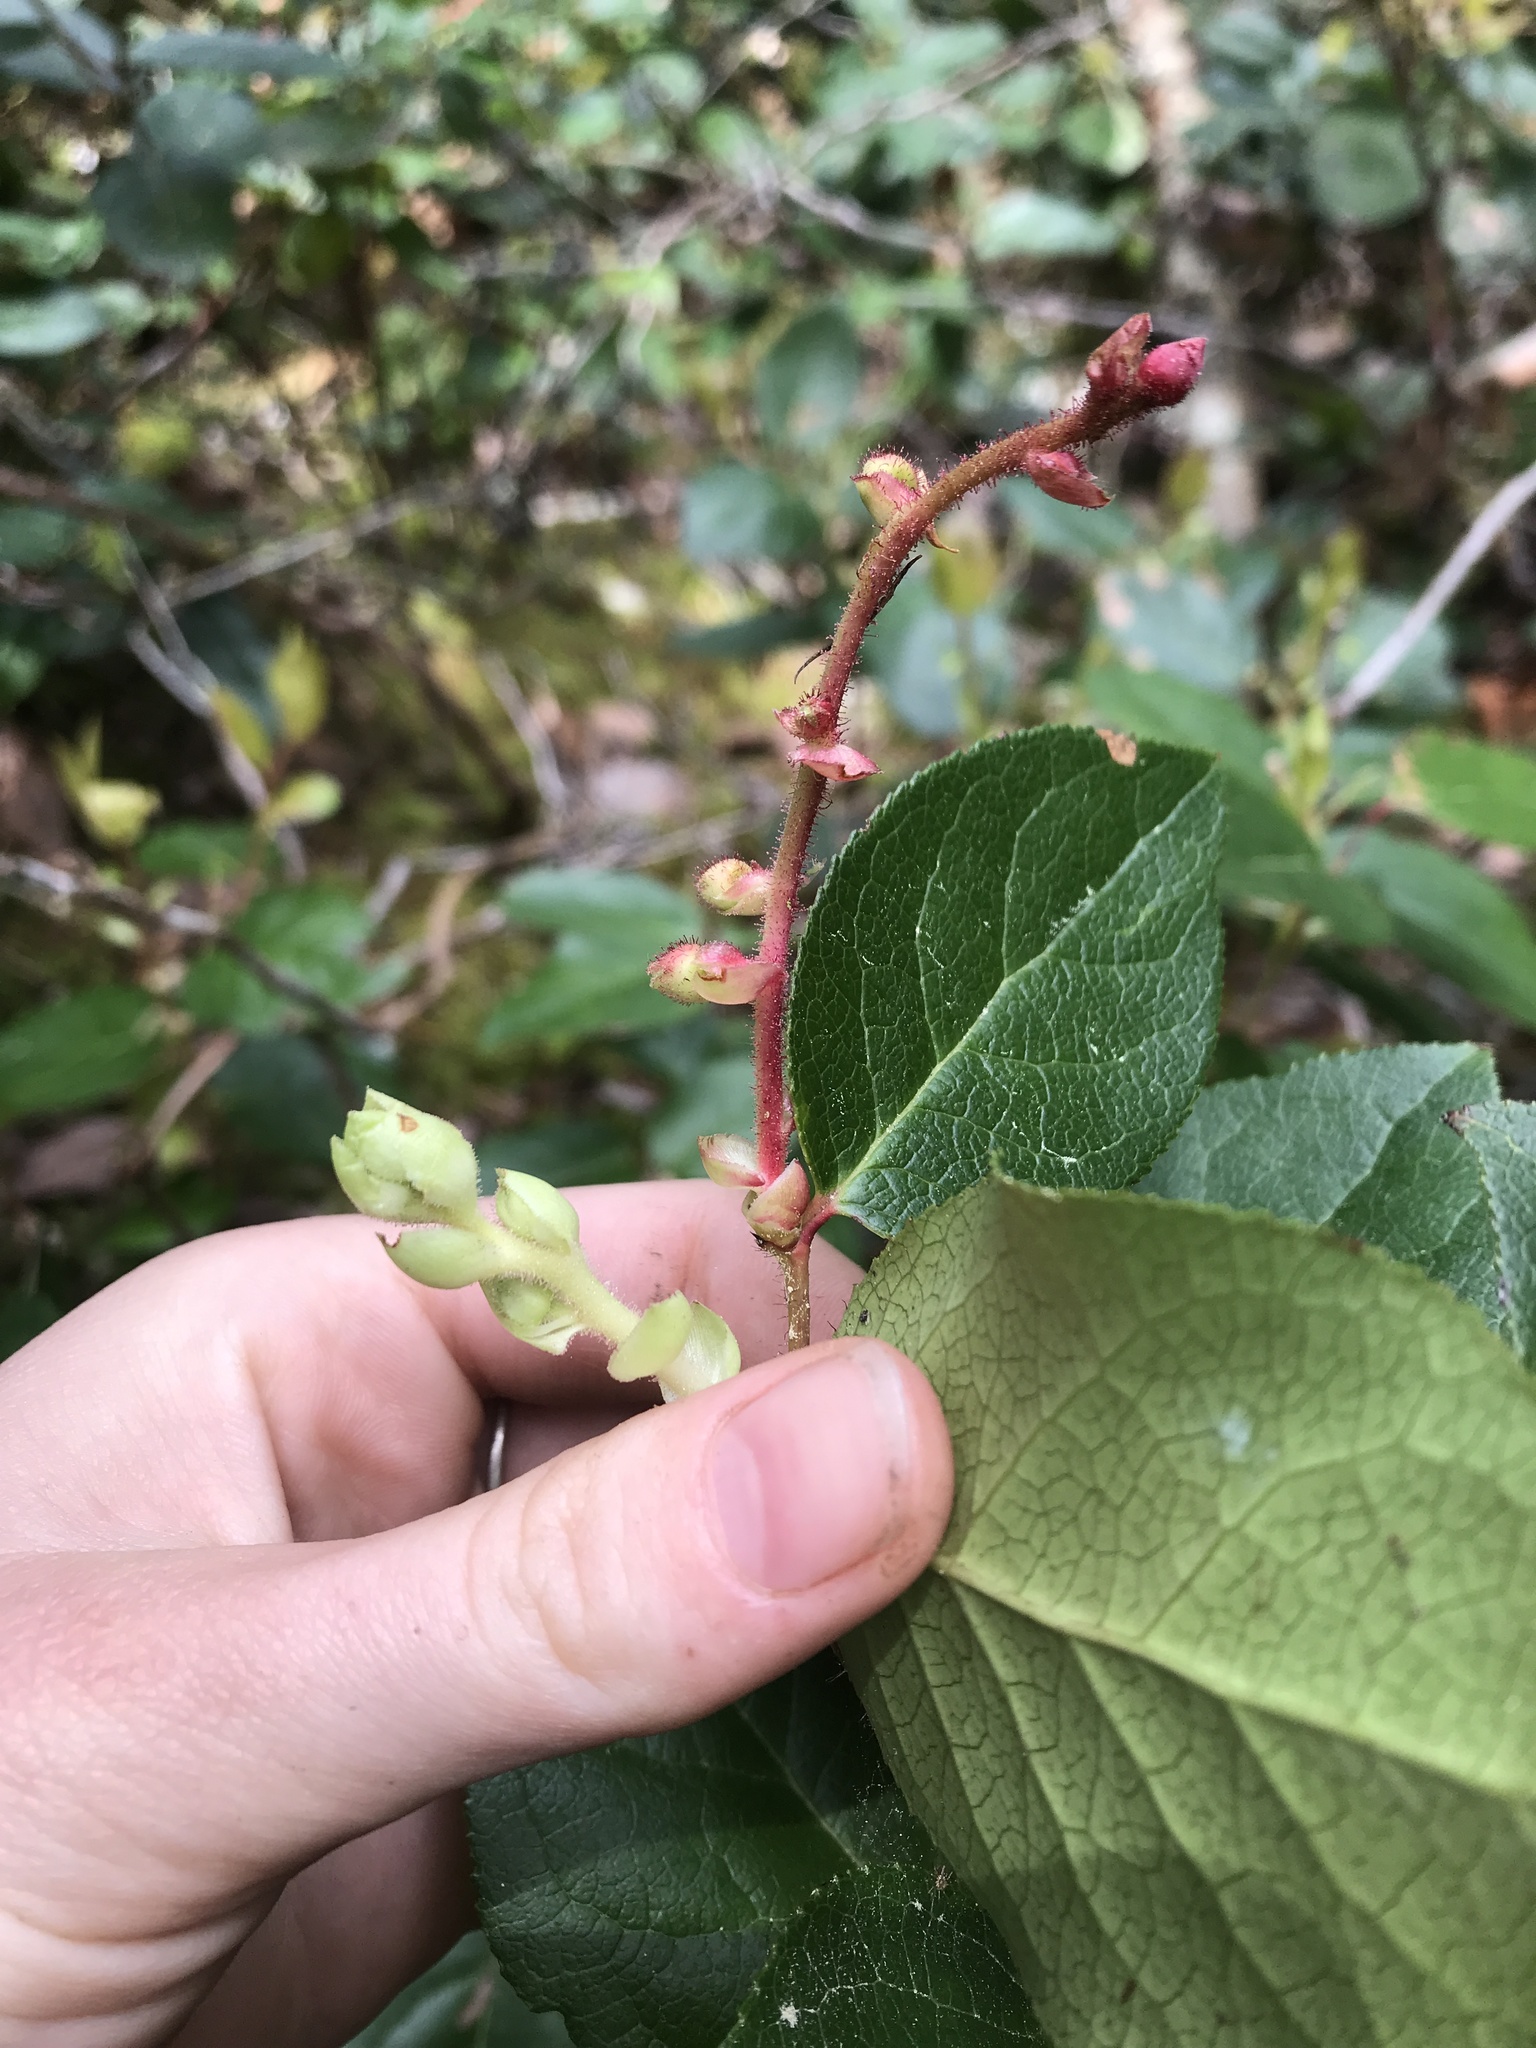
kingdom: Plantae
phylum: Tracheophyta
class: Magnoliopsida
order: Ericales
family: Ericaceae
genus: Gaultheria
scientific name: Gaultheria shallon
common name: Shallon
